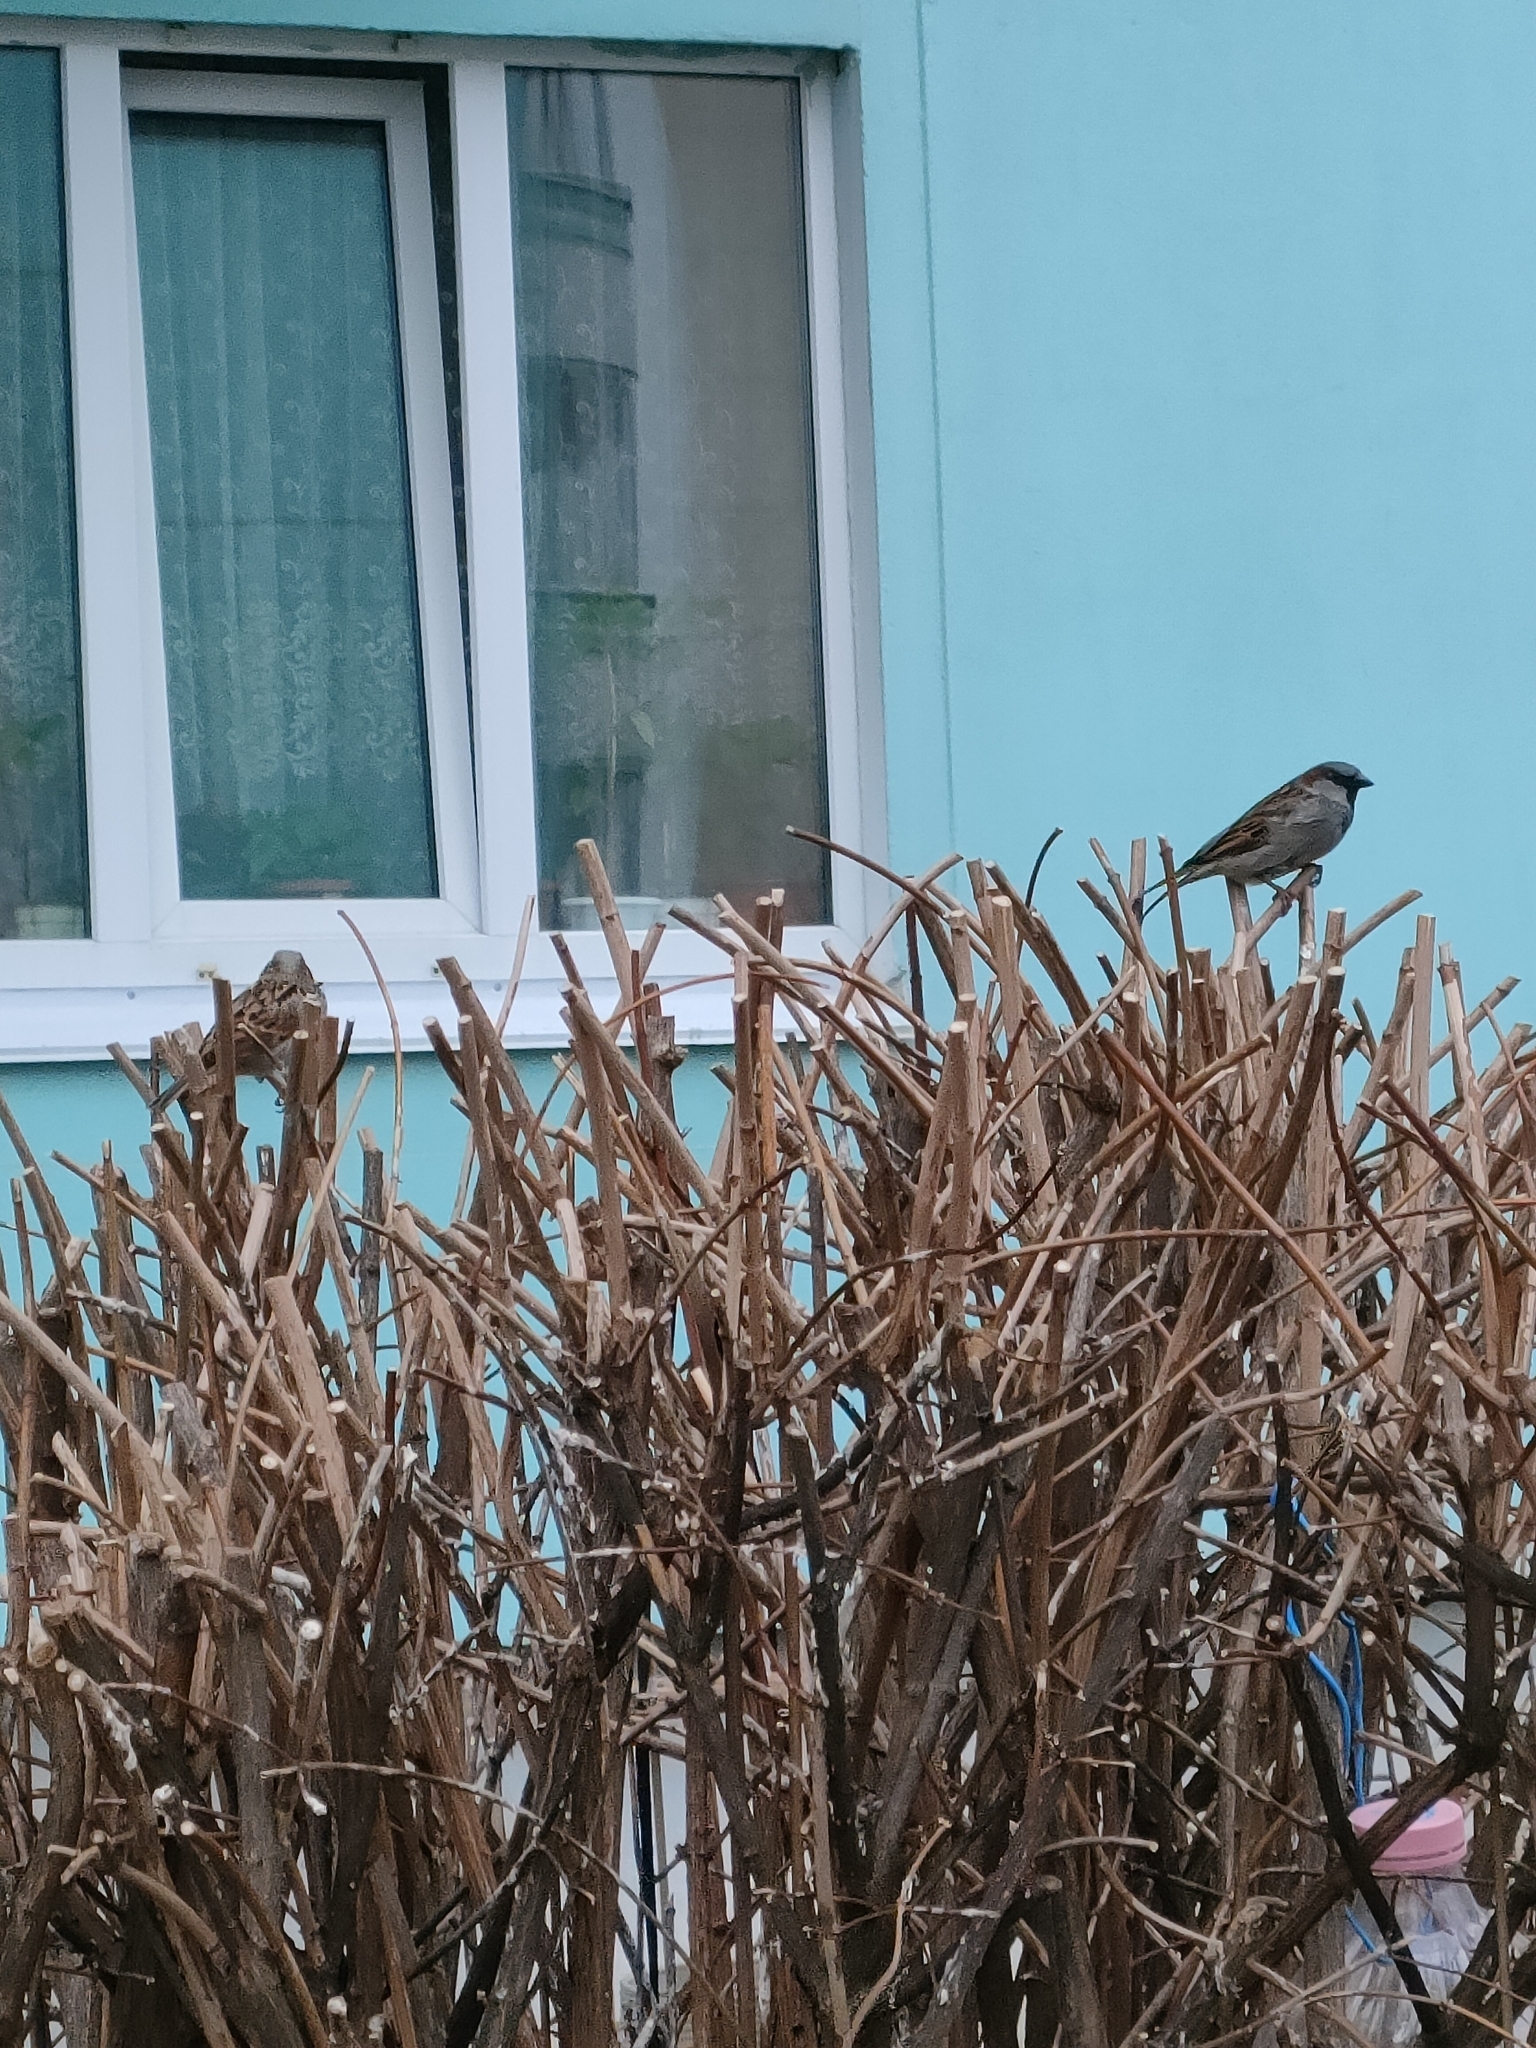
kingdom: Animalia
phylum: Chordata
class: Aves
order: Passeriformes
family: Passeridae
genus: Passer
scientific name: Passer domesticus
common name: House sparrow
